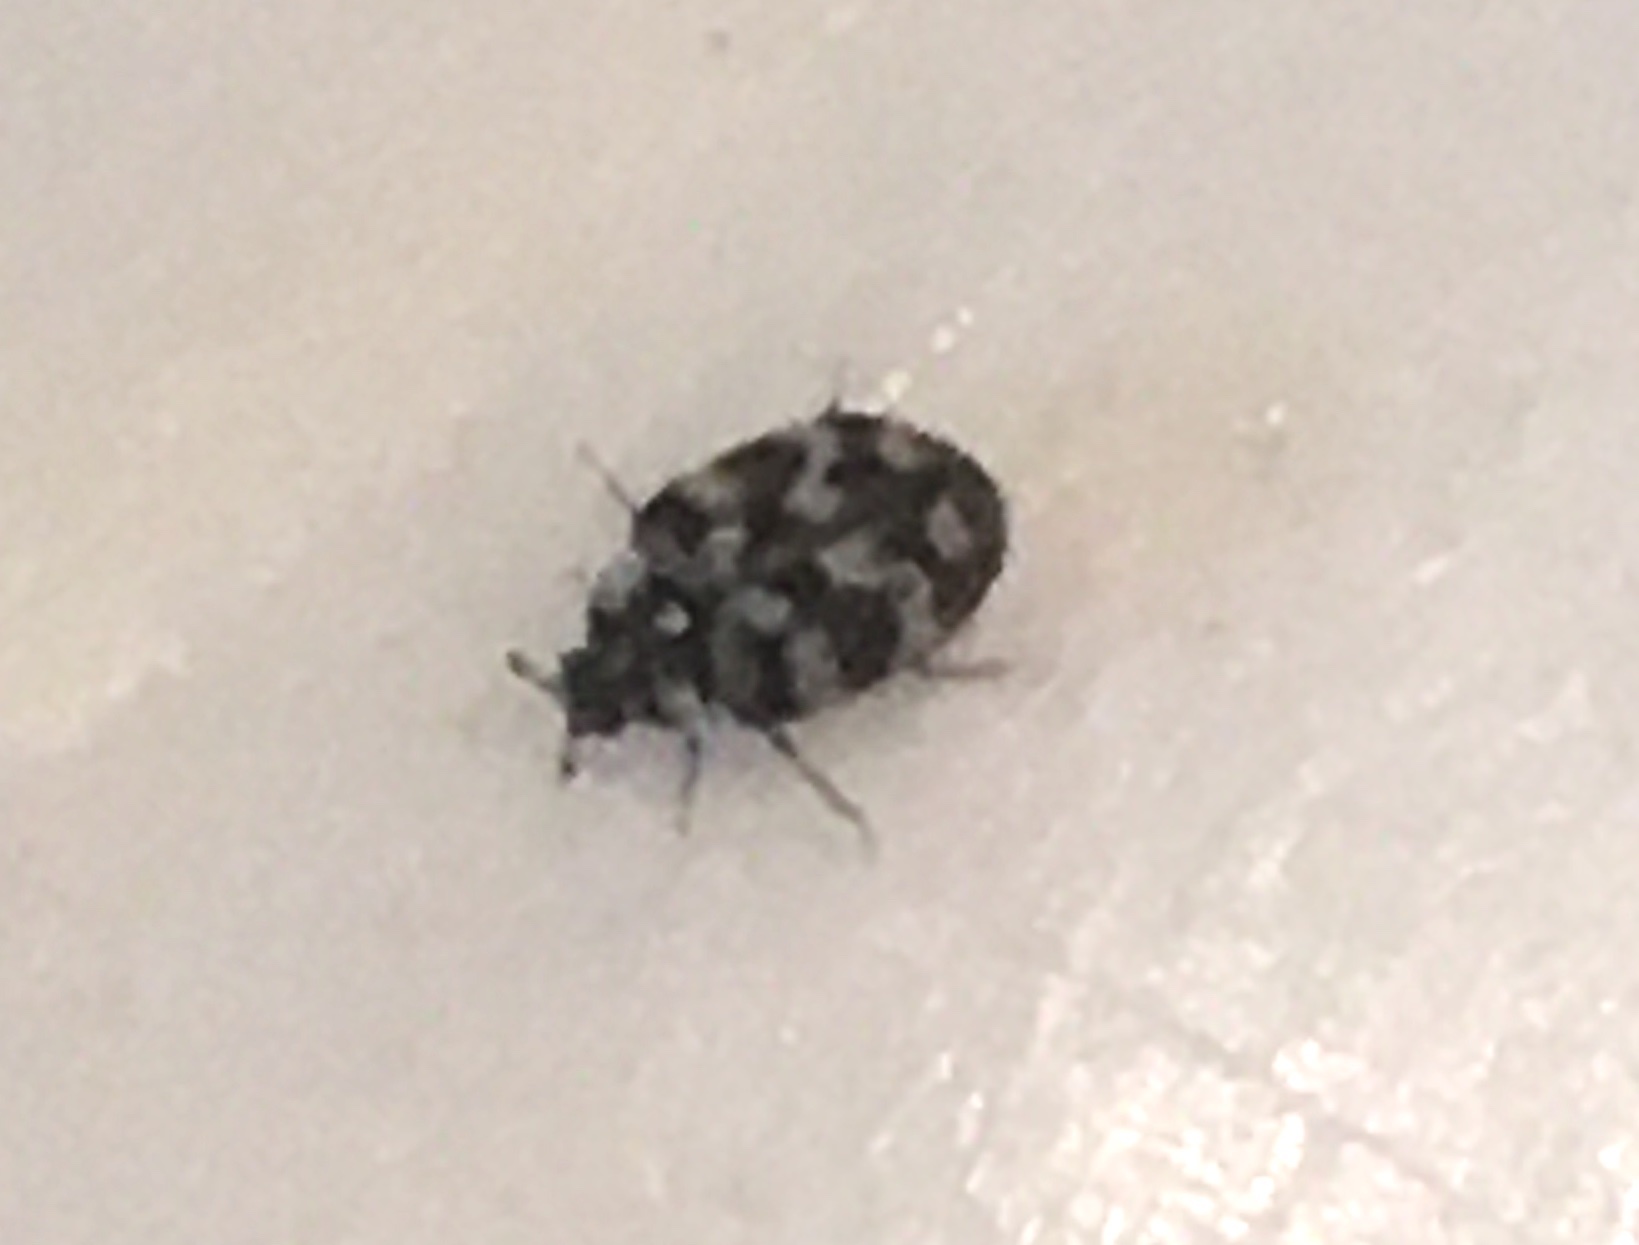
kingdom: Animalia
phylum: Arthropoda
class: Insecta
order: Coleoptera
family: Dermestidae
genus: Anthrenus
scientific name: Anthrenus verbasci
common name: Varied carpet beetle
